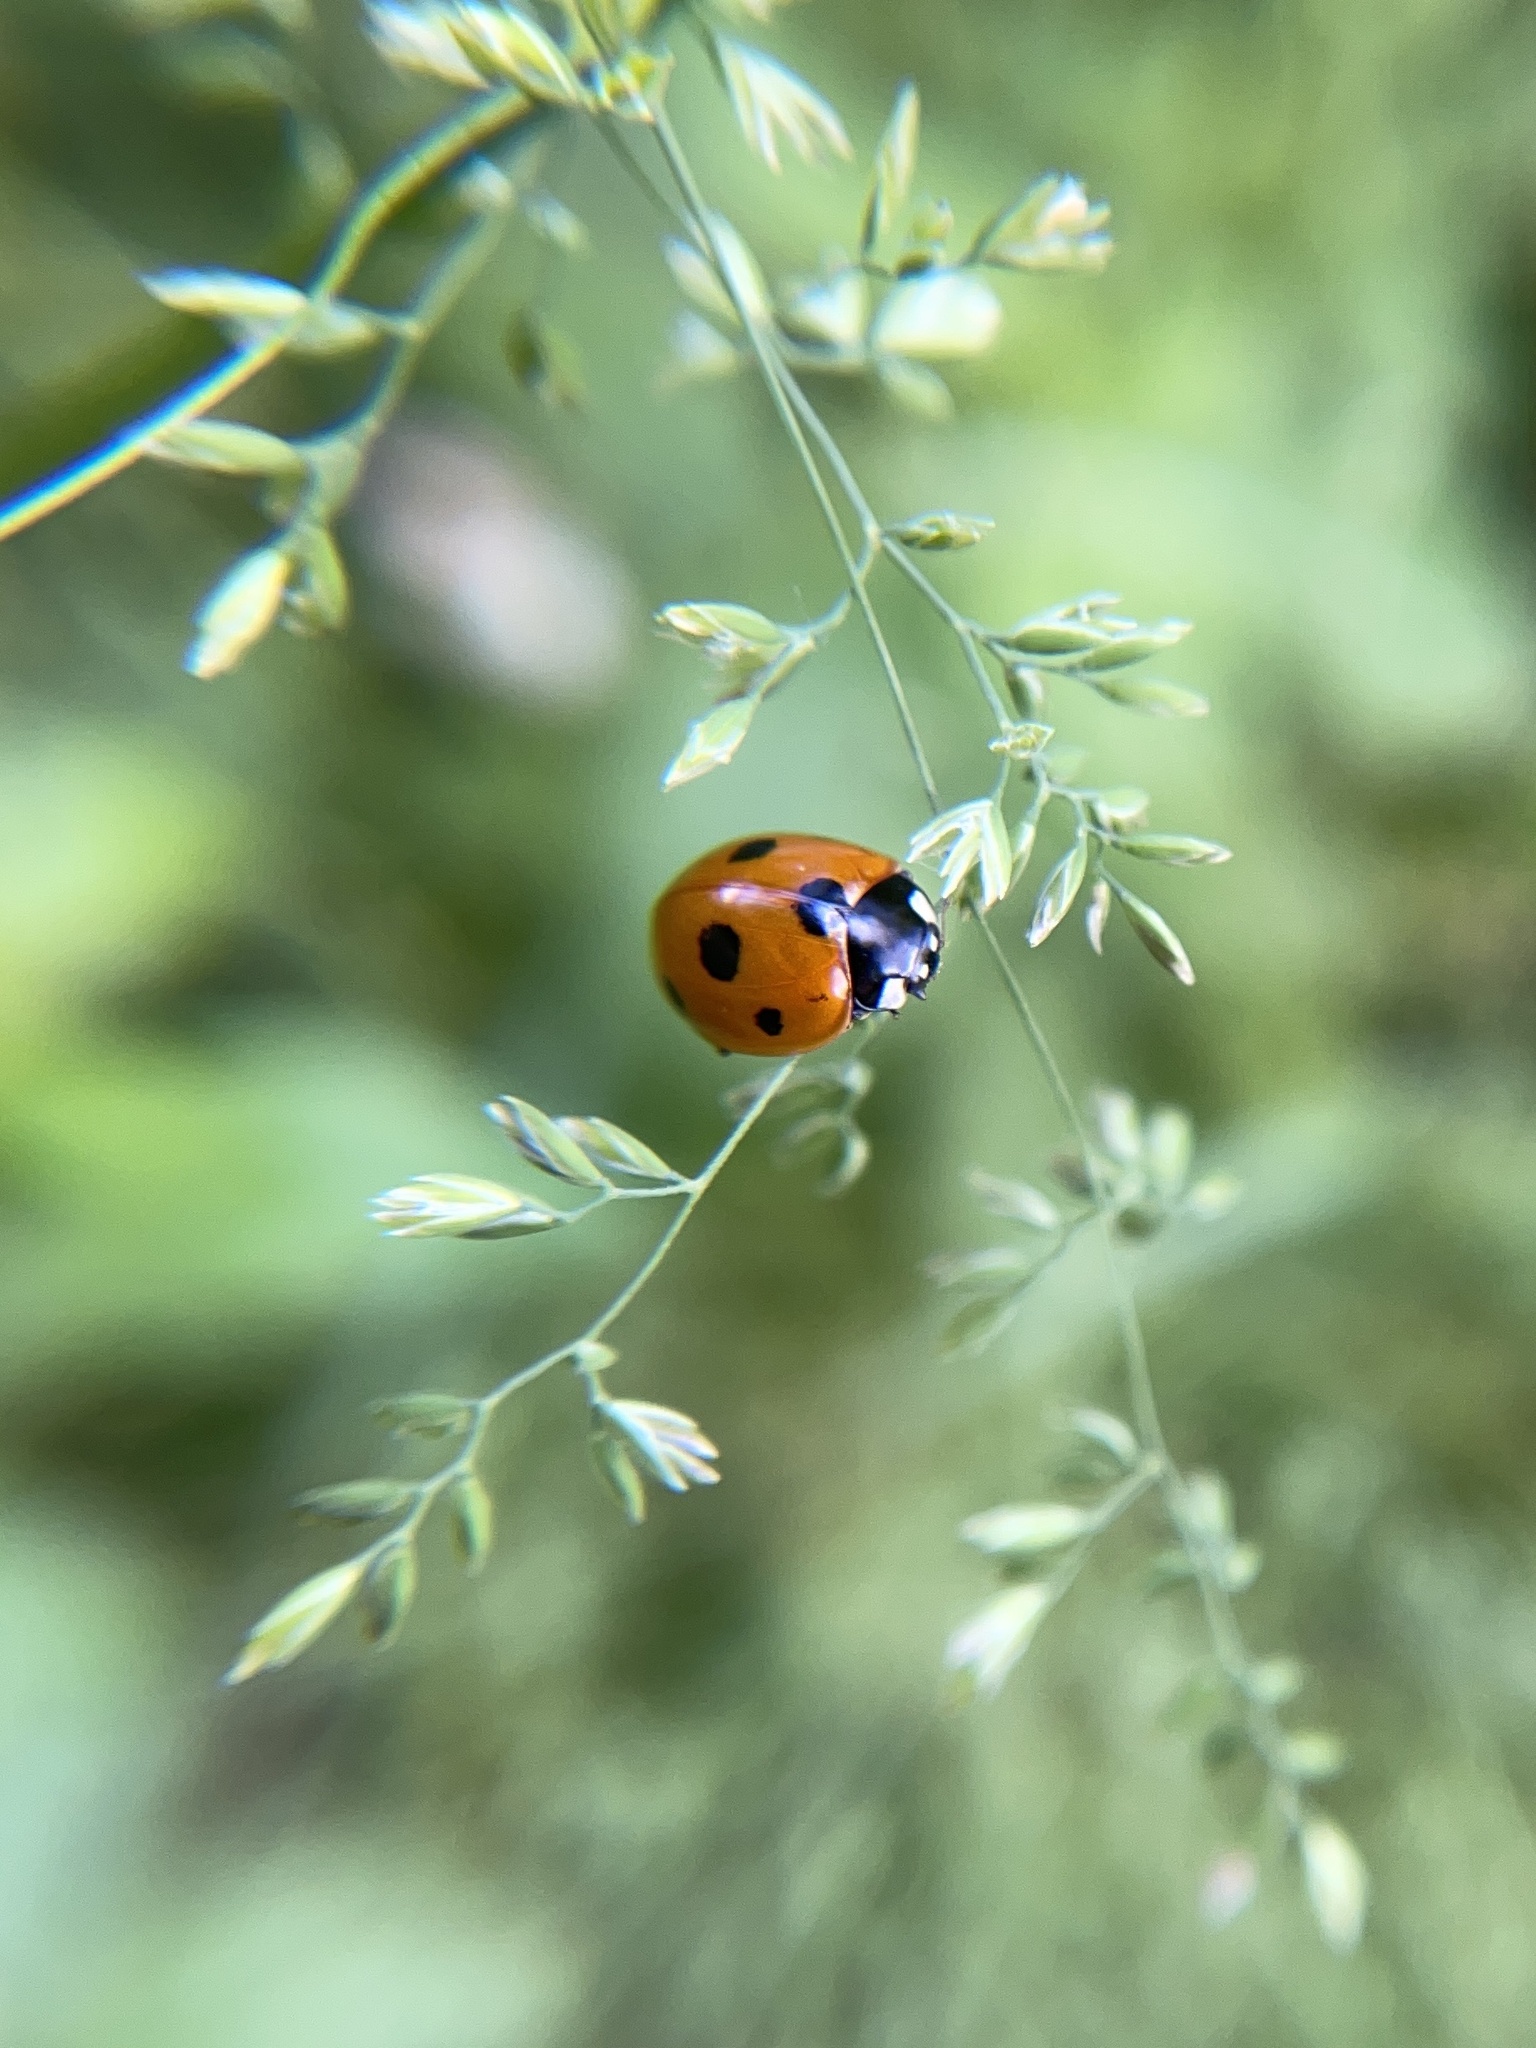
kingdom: Animalia
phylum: Arthropoda
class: Insecta
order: Coleoptera
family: Coccinellidae
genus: Coccinella
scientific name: Coccinella septempunctata
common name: Sevenspotted lady beetle
